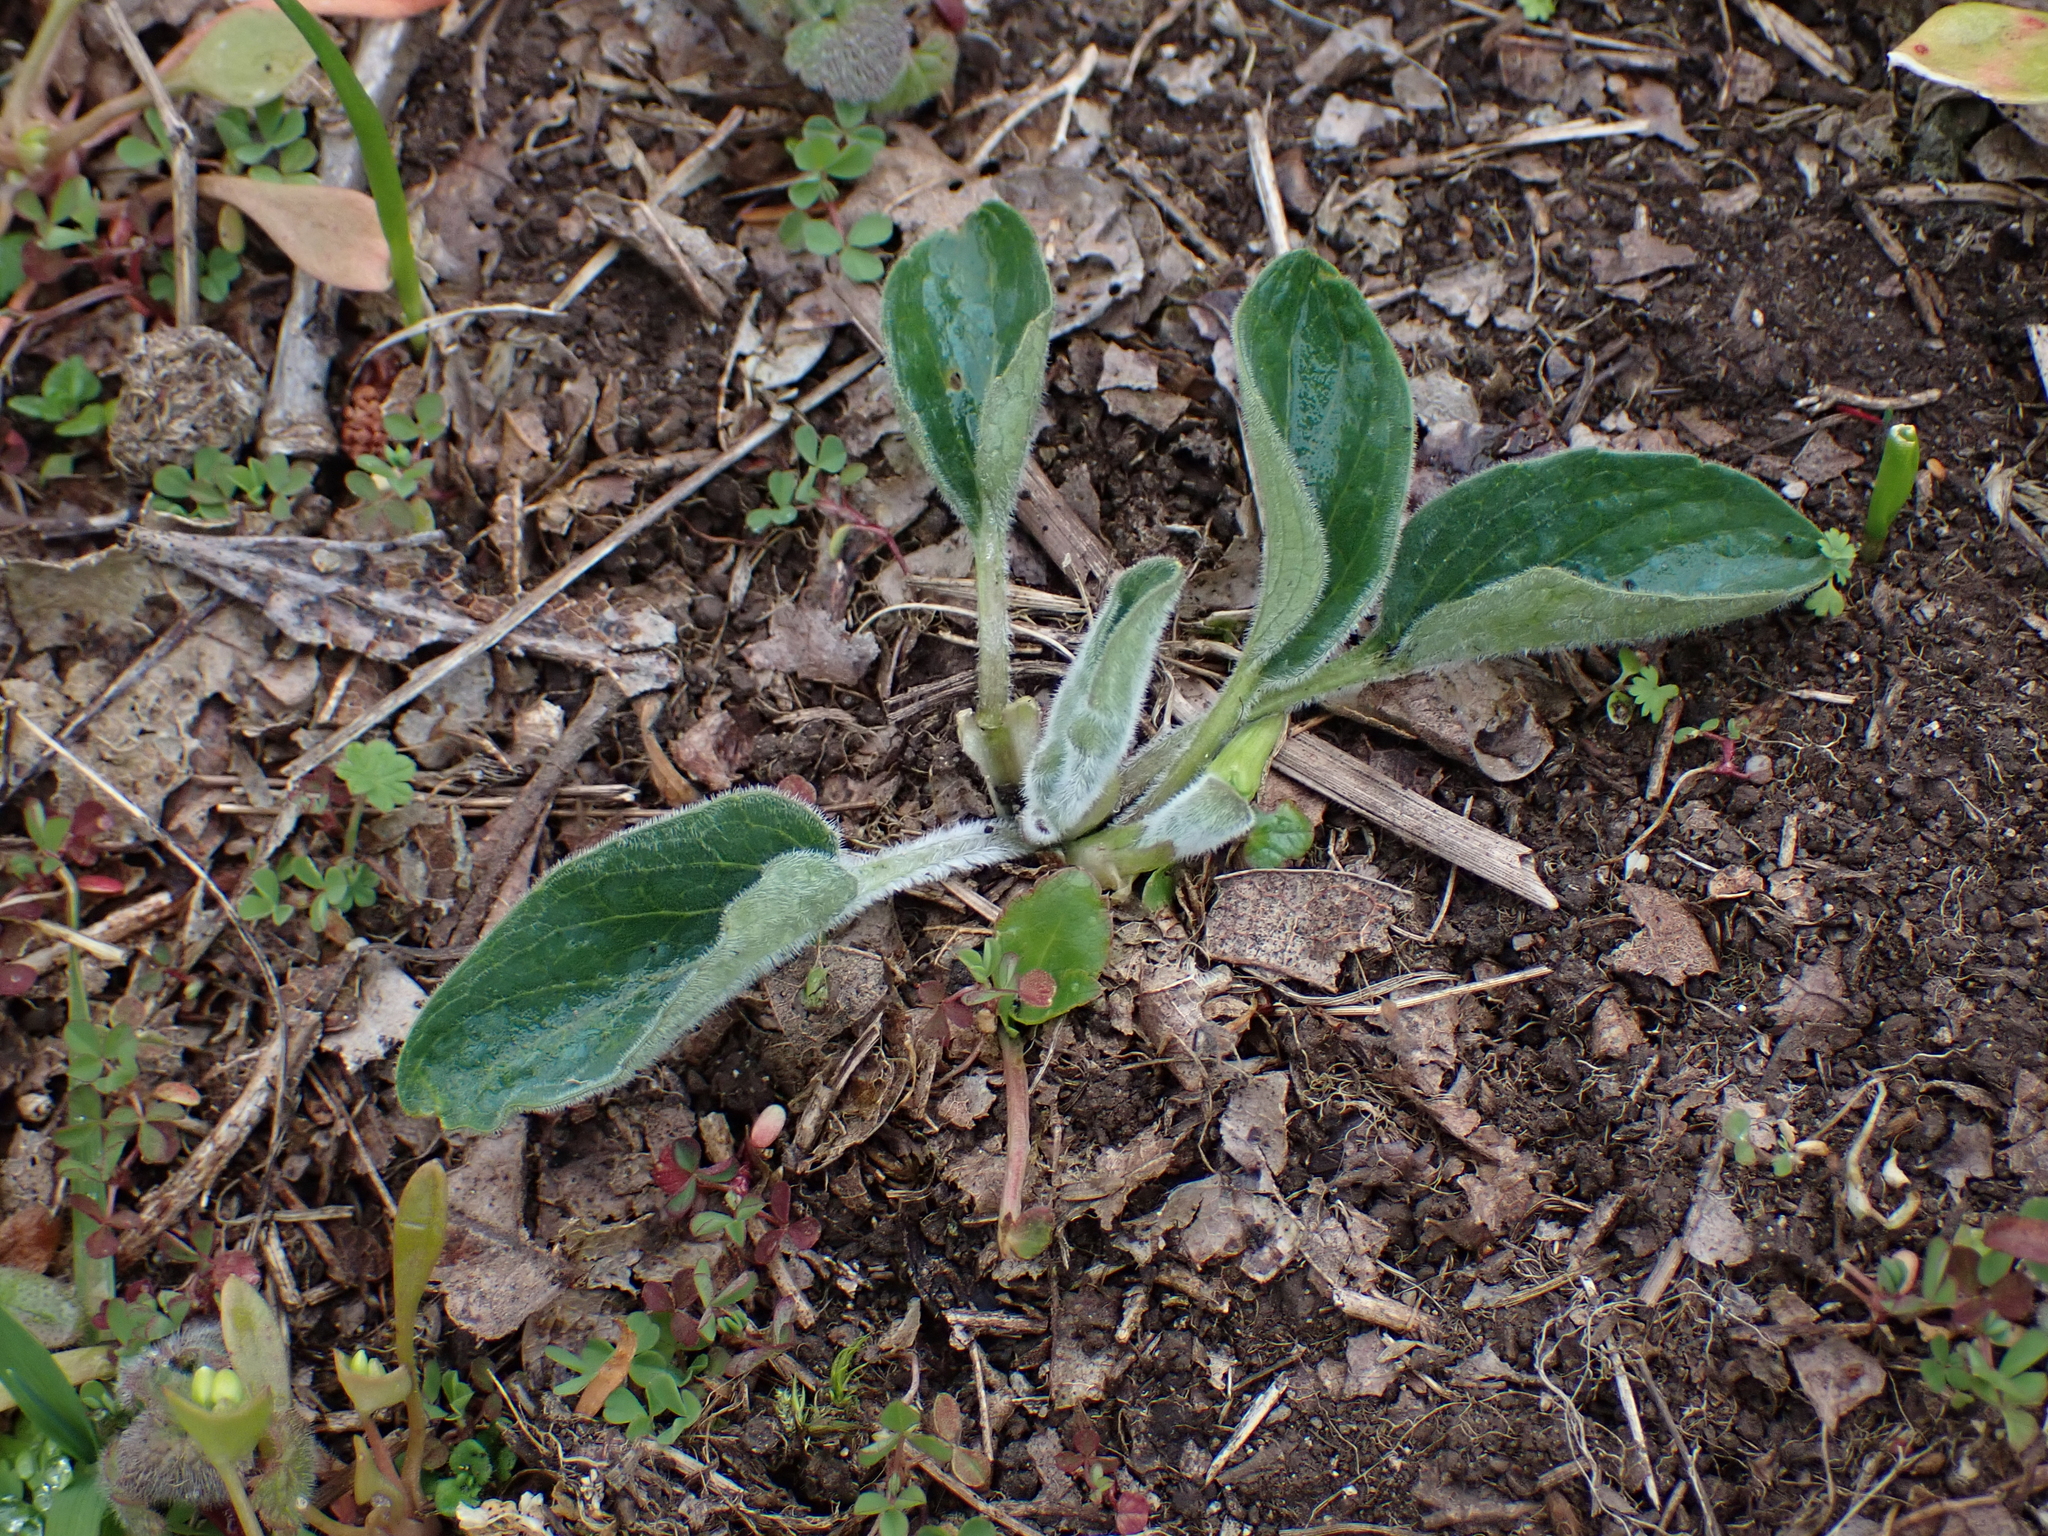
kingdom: Plantae
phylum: Tracheophyta
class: Magnoliopsida
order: Malpighiales
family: Violaceae
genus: Viola
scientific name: Viola praemorsa
